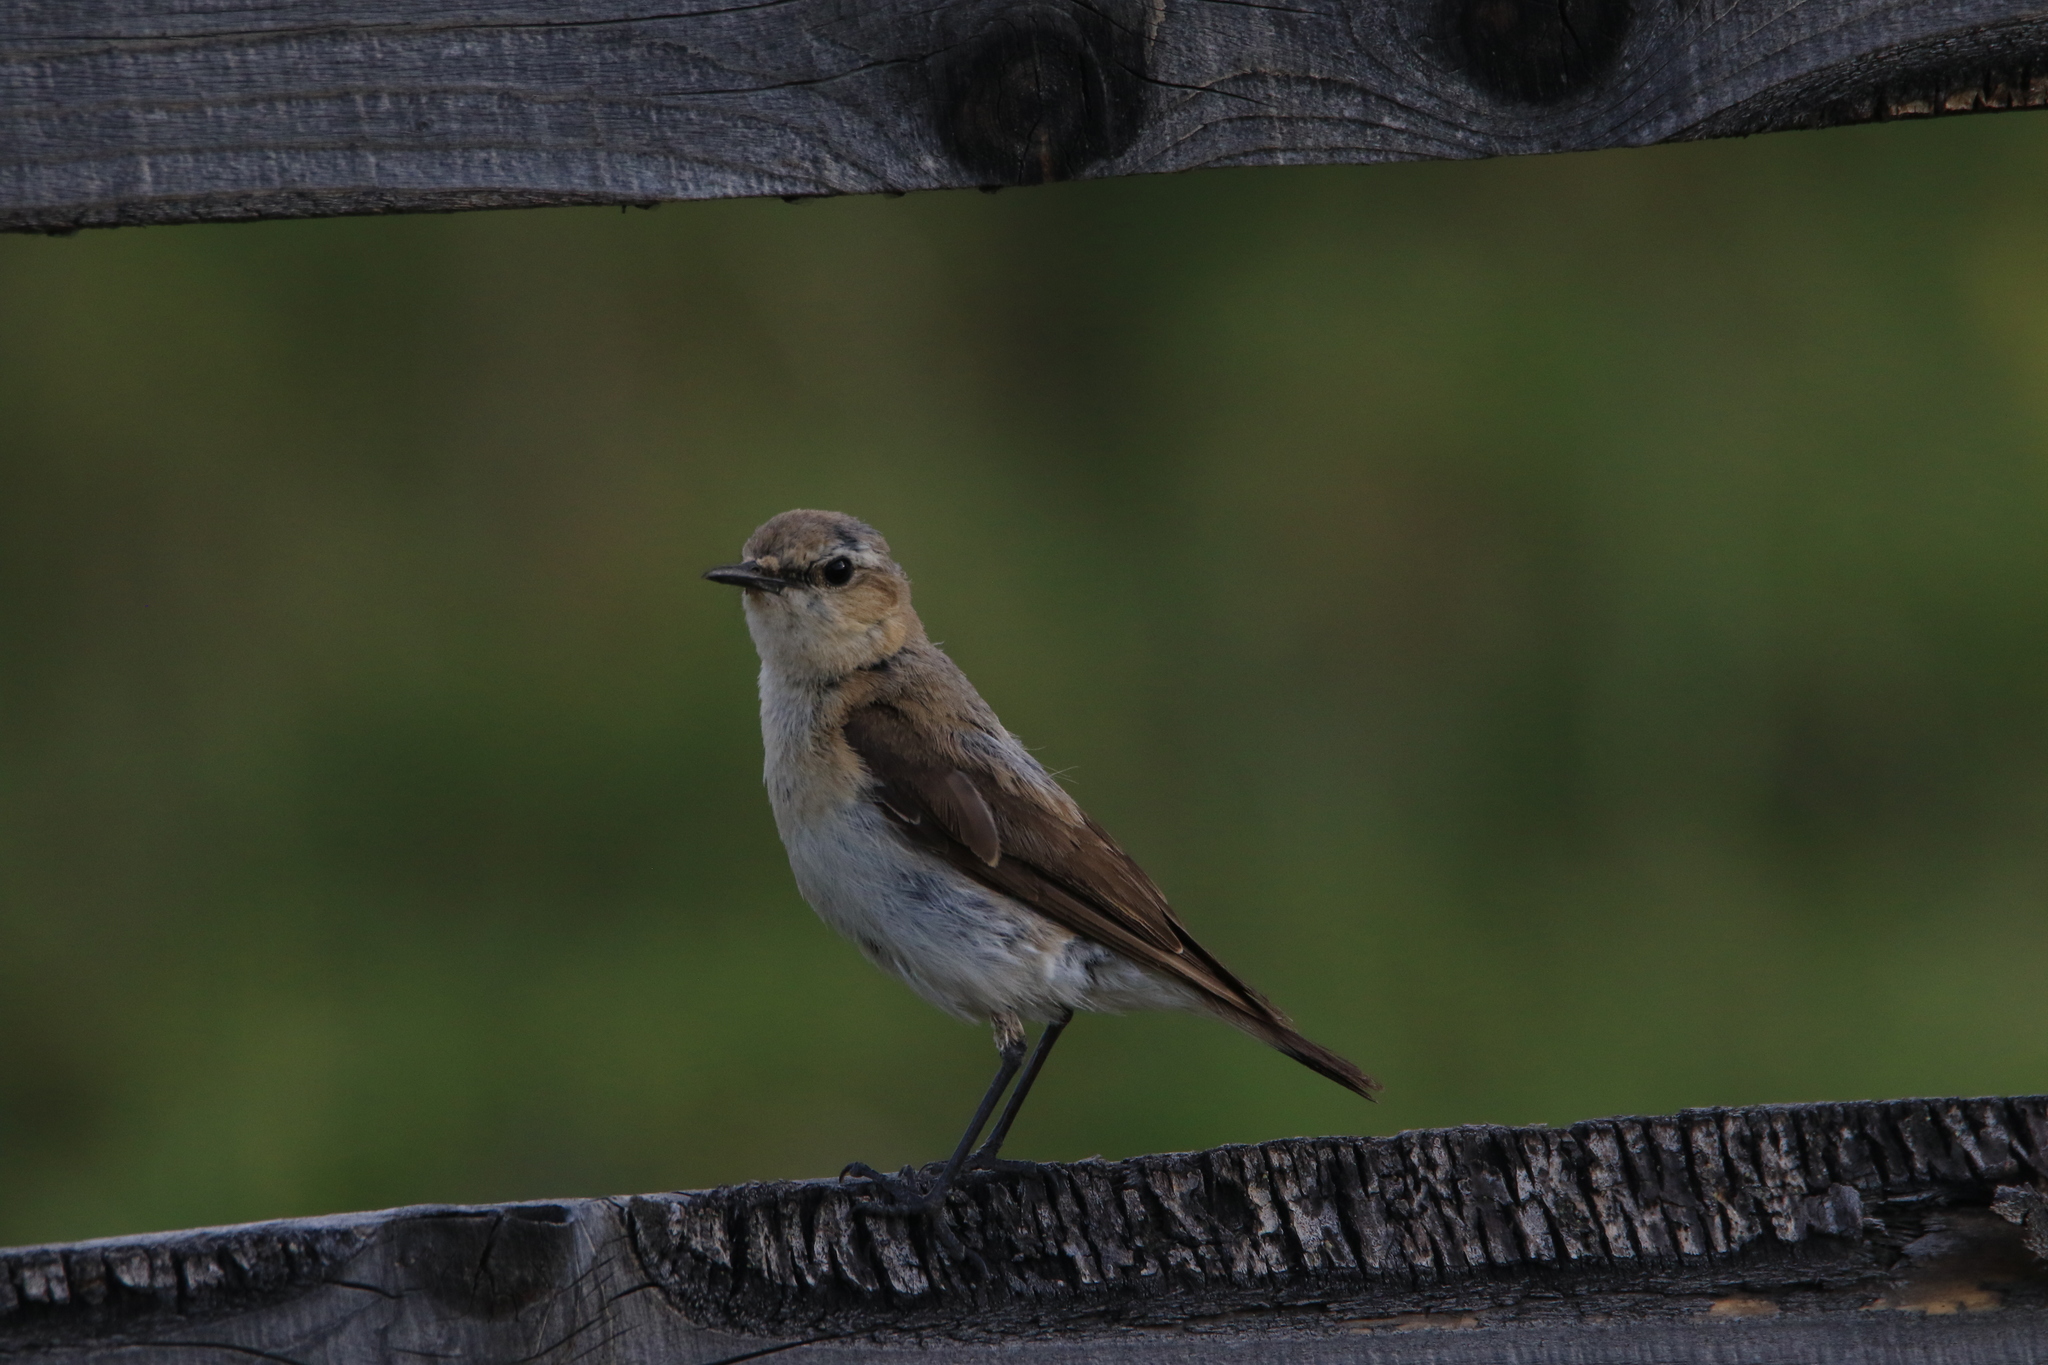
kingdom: Animalia
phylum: Chordata
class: Aves
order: Passeriformes
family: Muscicapidae
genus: Oenanthe
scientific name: Oenanthe oenanthe
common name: Northern wheatear
